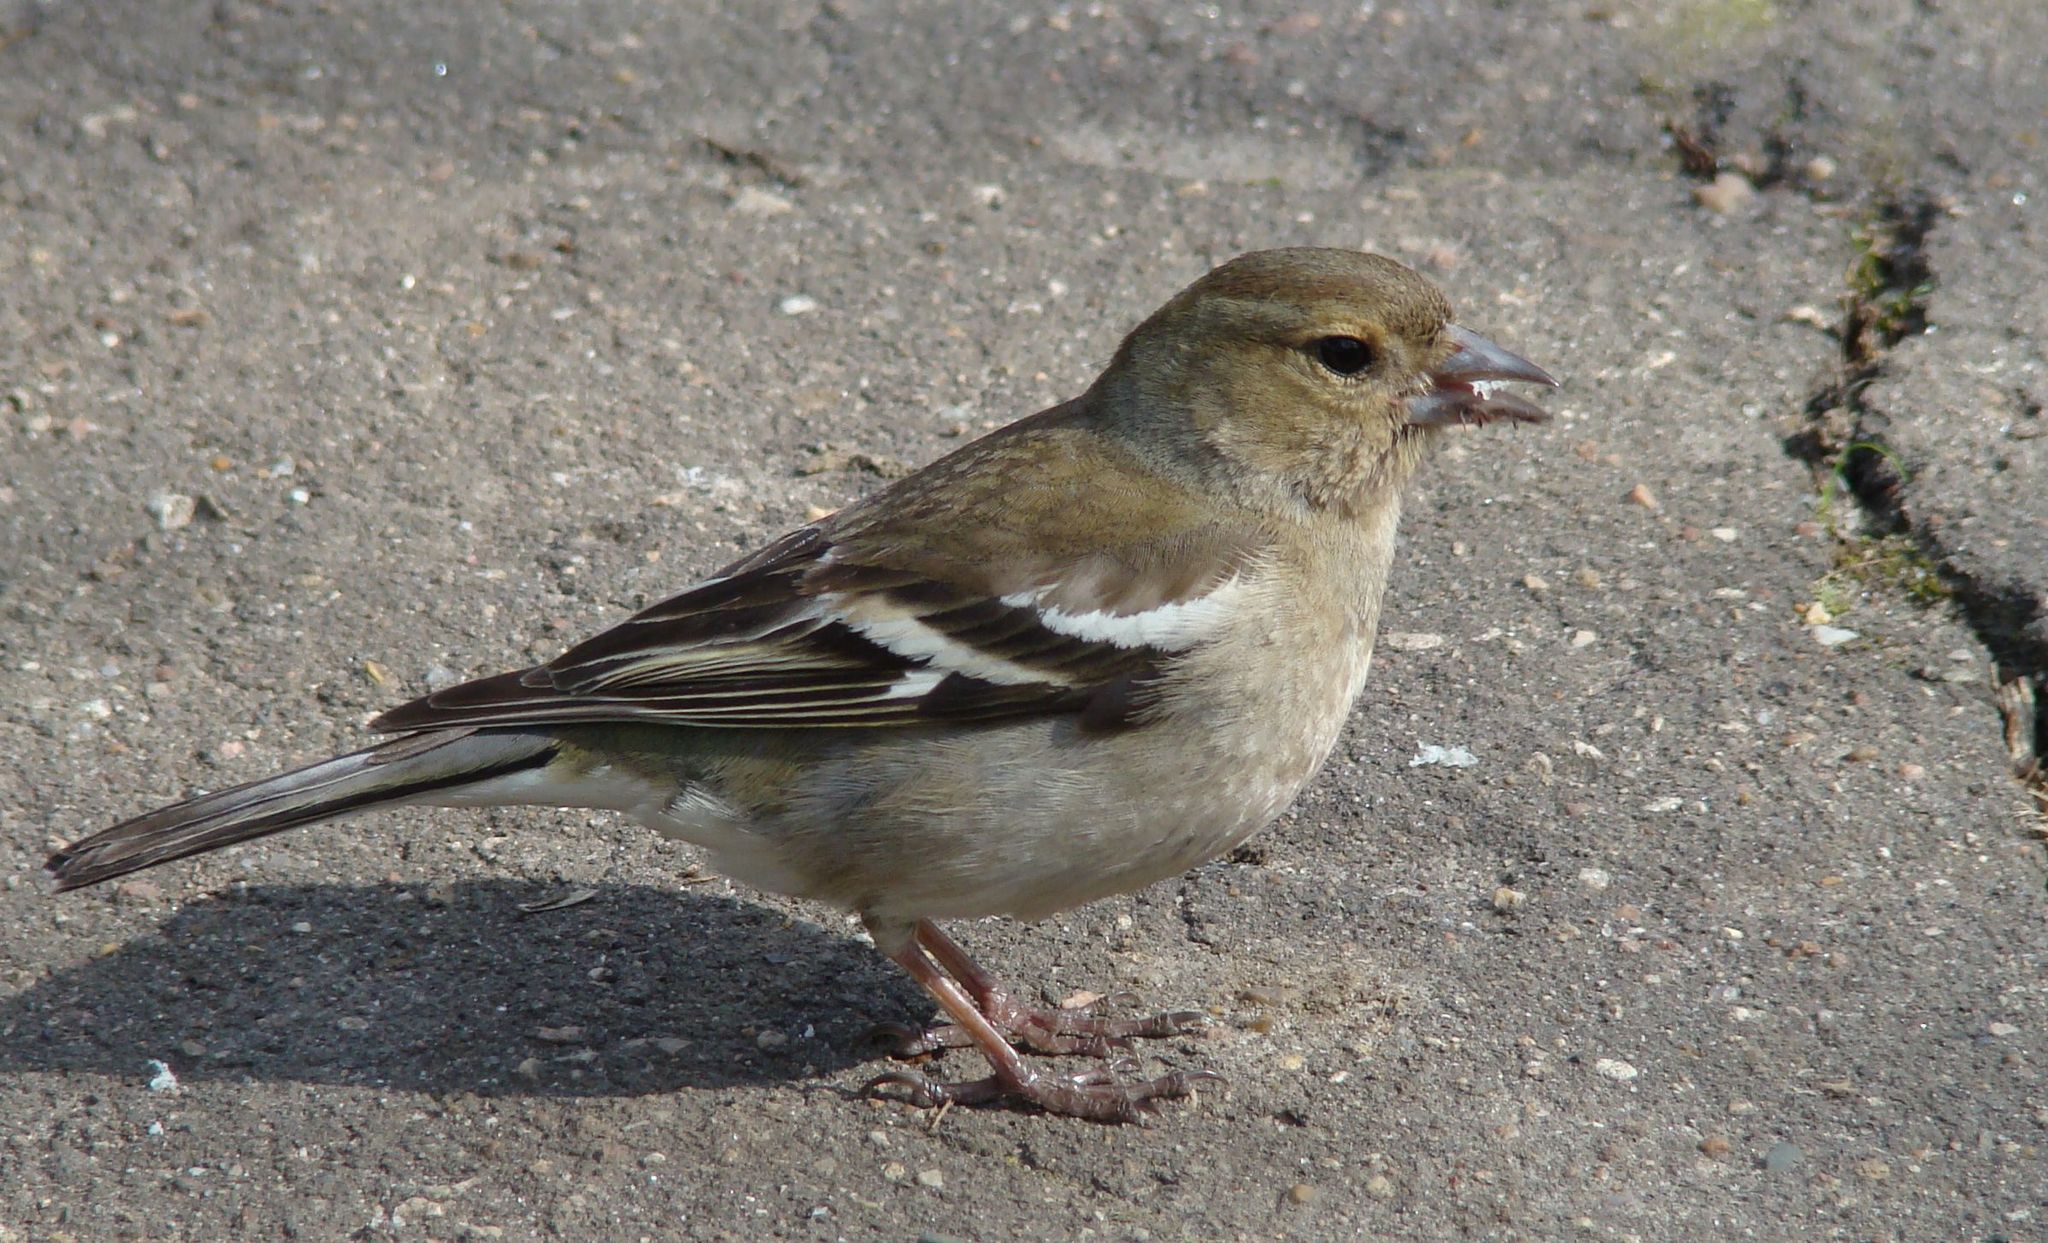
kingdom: Animalia
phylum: Chordata
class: Aves
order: Passeriformes
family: Fringillidae
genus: Fringilla
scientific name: Fringilla coelebs
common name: Common chaffinch
